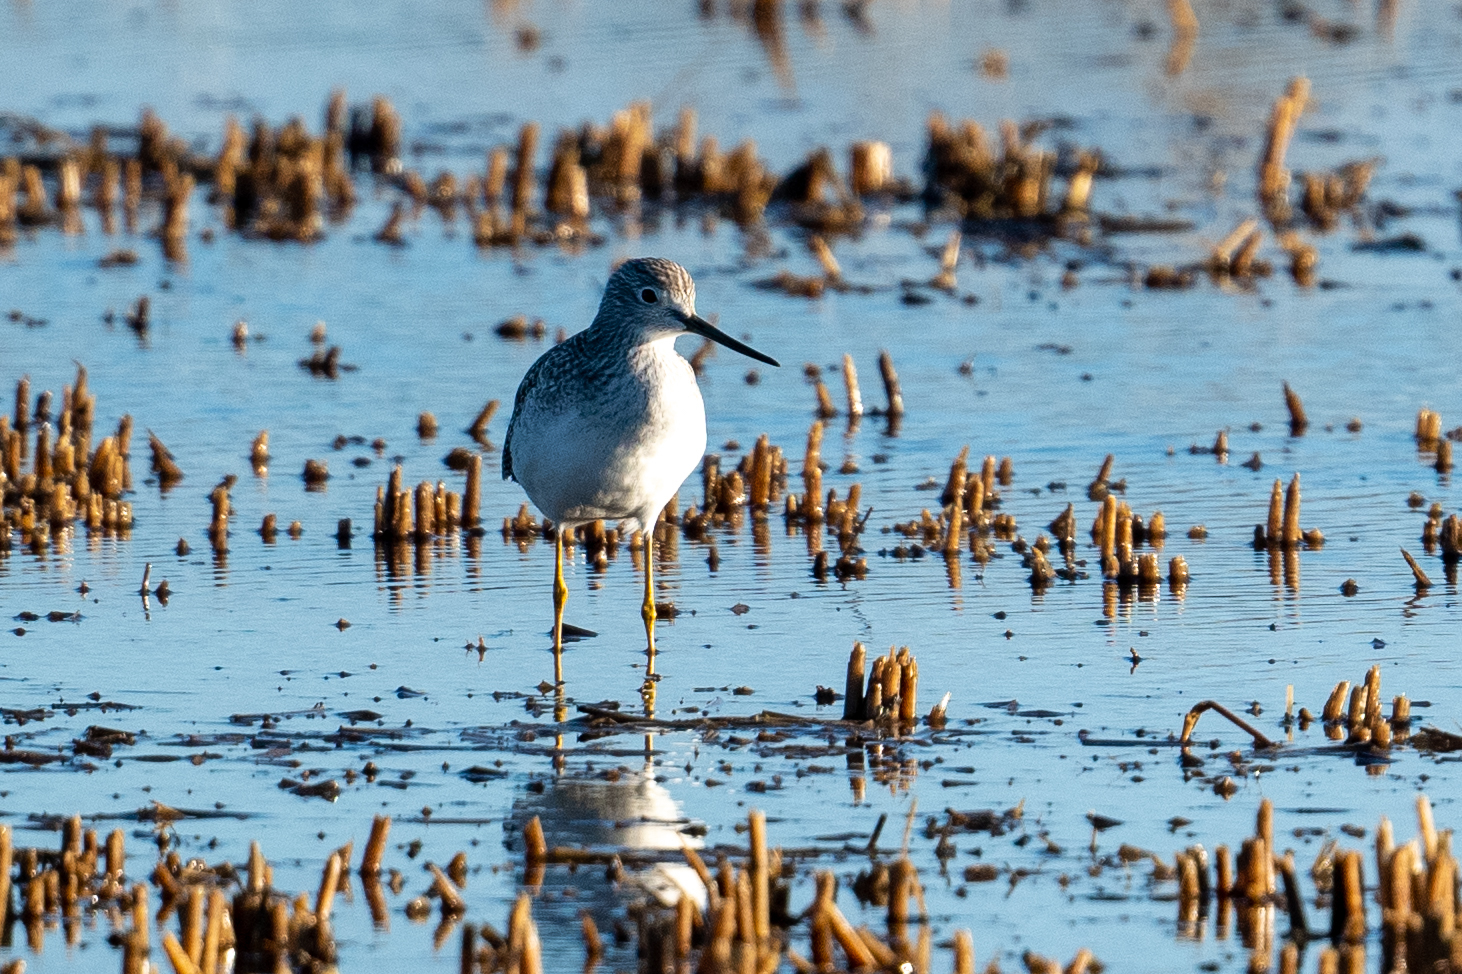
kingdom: Animalia
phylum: Chordata
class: Aves
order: Charadriiformes
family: Scolopacidae
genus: Tringa
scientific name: Tringa melanoleuca
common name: Greater yellowlegs
